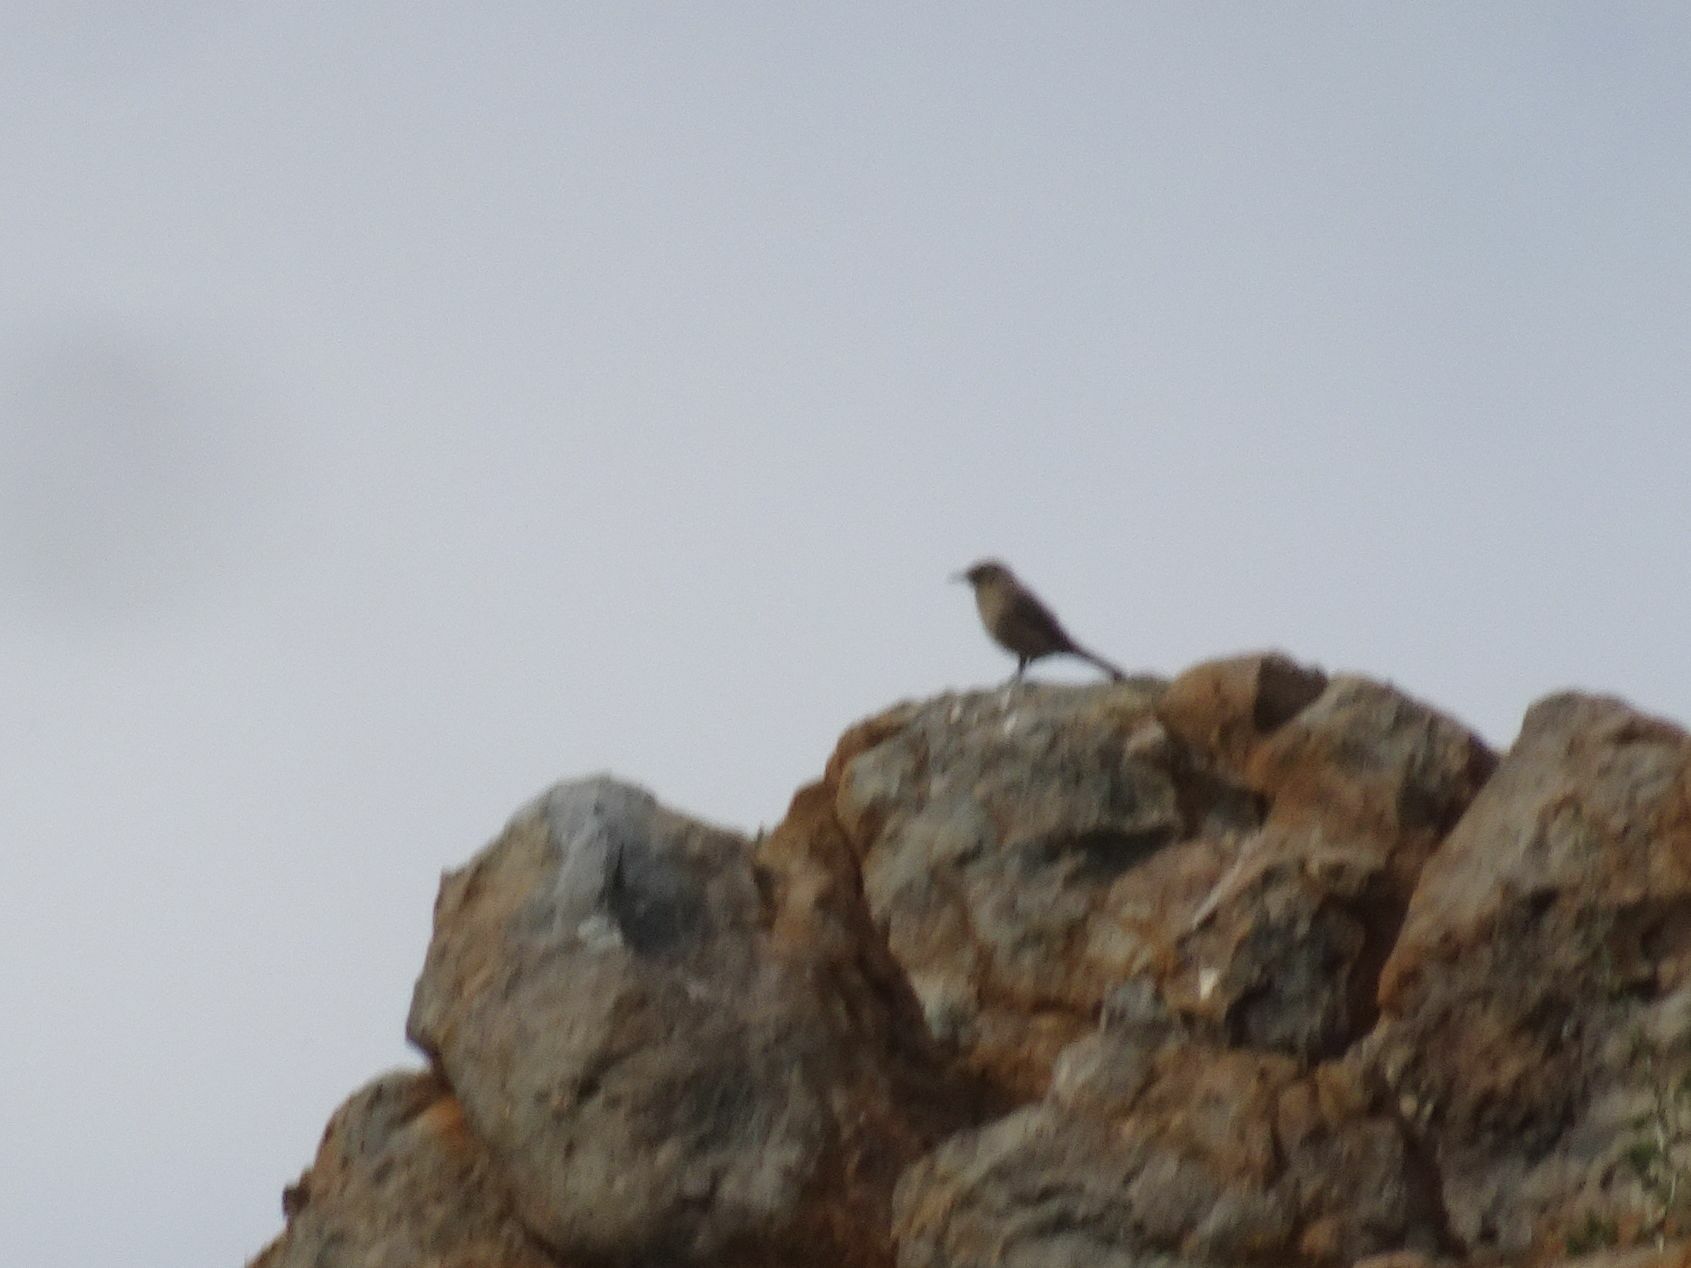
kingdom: Animalia
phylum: Chordata
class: Aves
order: Passeriformes
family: Muscicapidae
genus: Oenanthe
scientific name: Oenanthe familiaris
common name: Familiar chat
